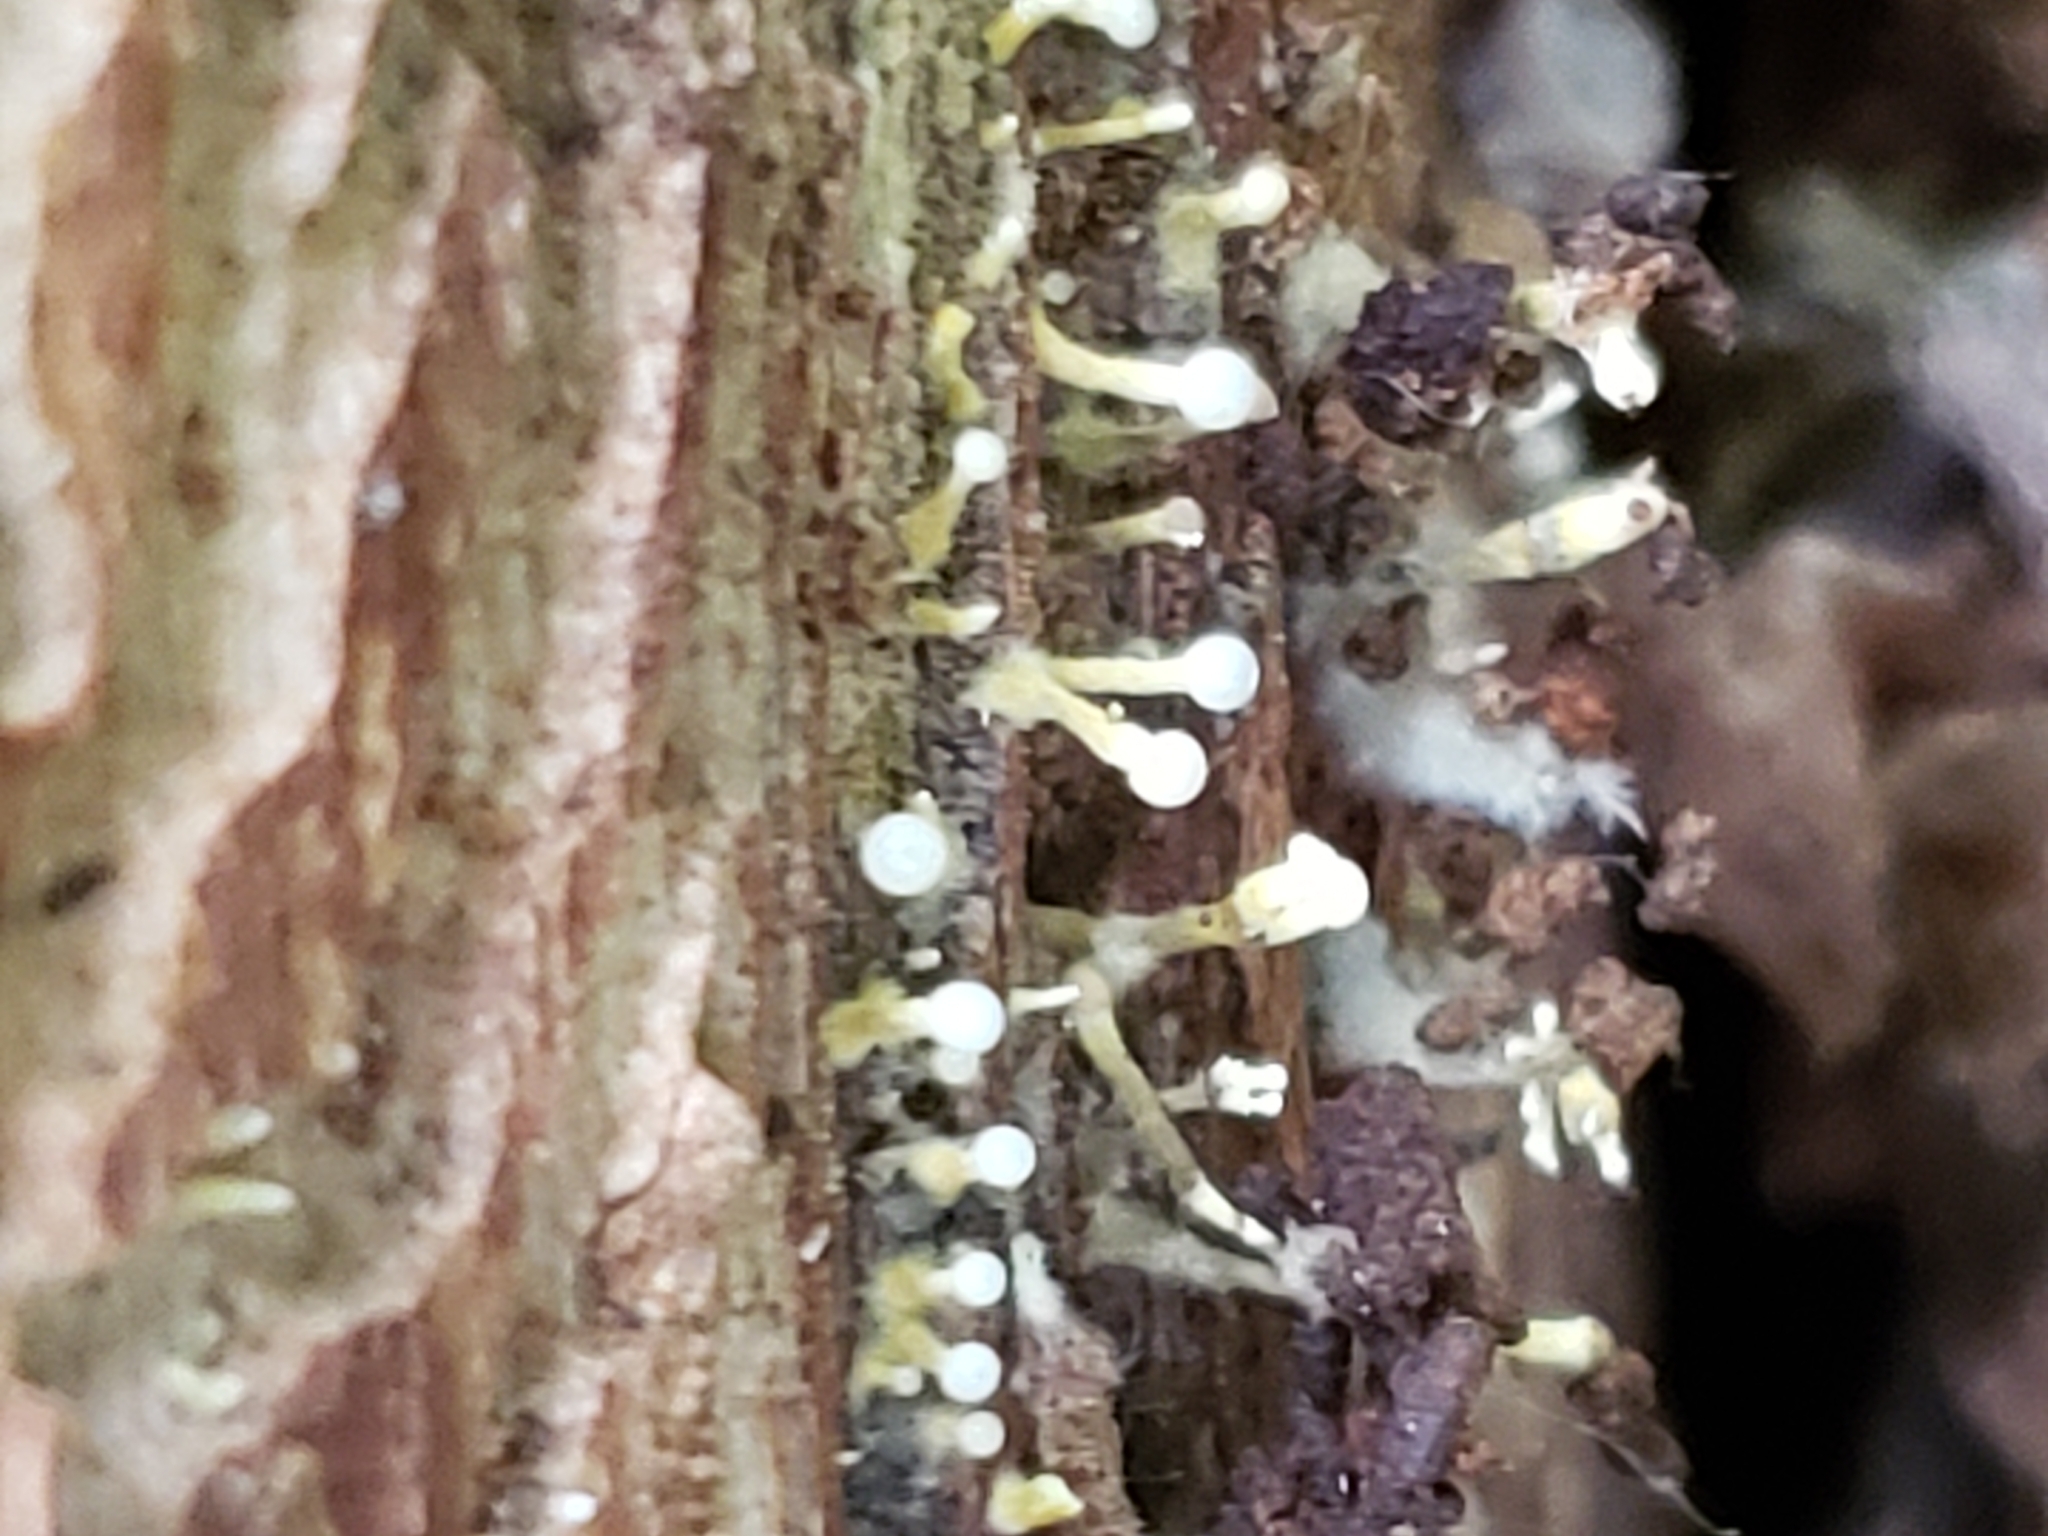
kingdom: Fungi
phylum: Basidiomycota
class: Atractiellomycetes
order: Atractiellales
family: Phleogenaceae
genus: Phleogena
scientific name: Phleogena faginea
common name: Fenugreek stalkball
